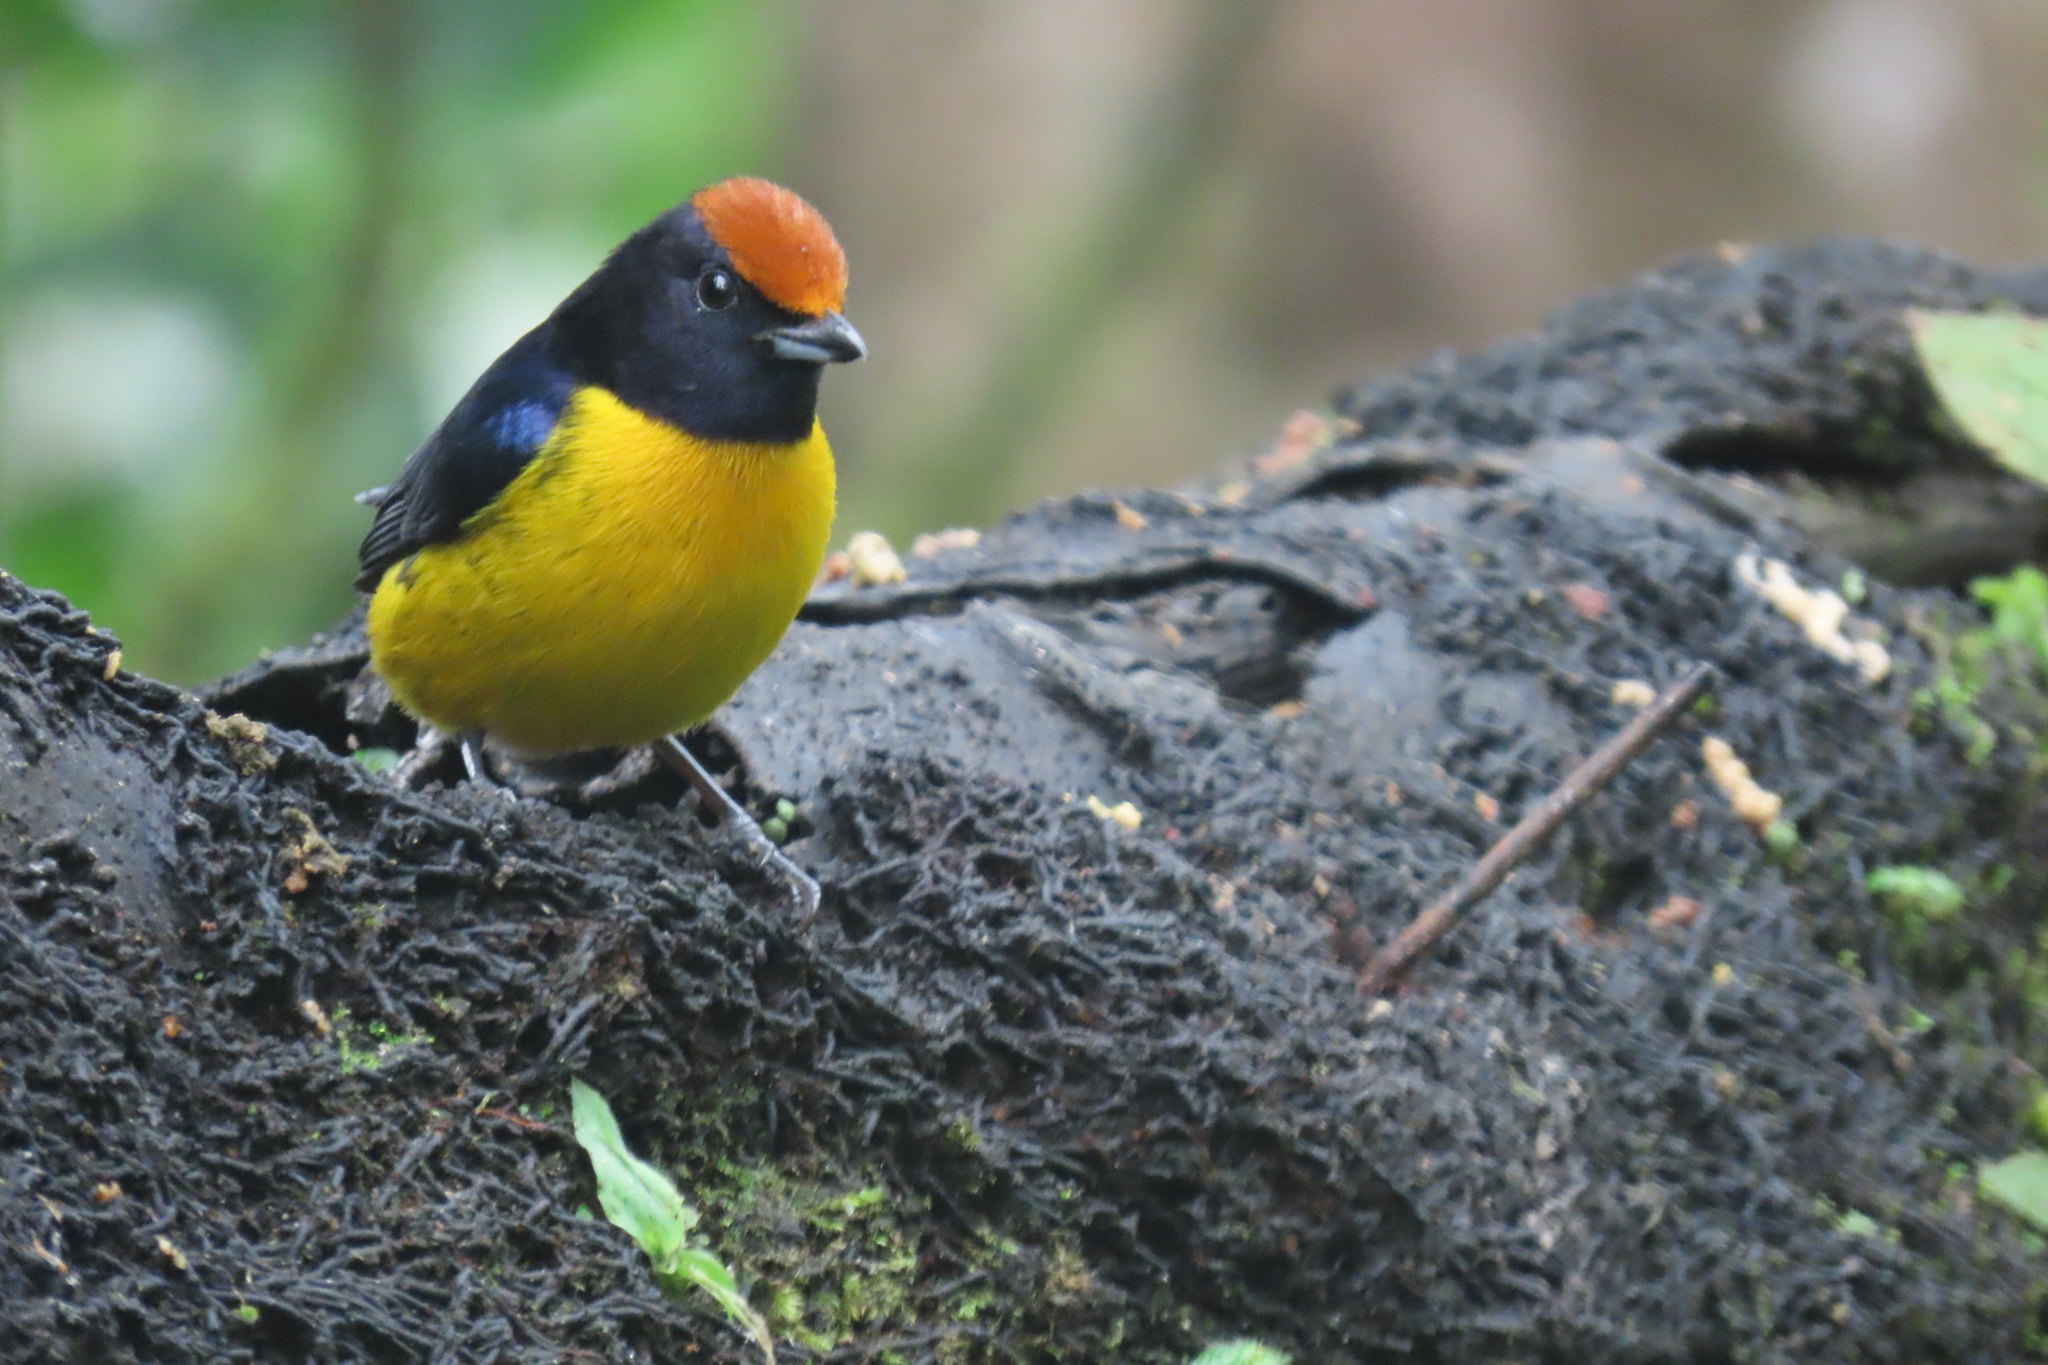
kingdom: Animalia
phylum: Chordata
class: Aves
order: Passeriformes
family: Fringillidae
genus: Euphonia
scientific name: Euphonia anneae
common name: Tawny-capped euphonia
